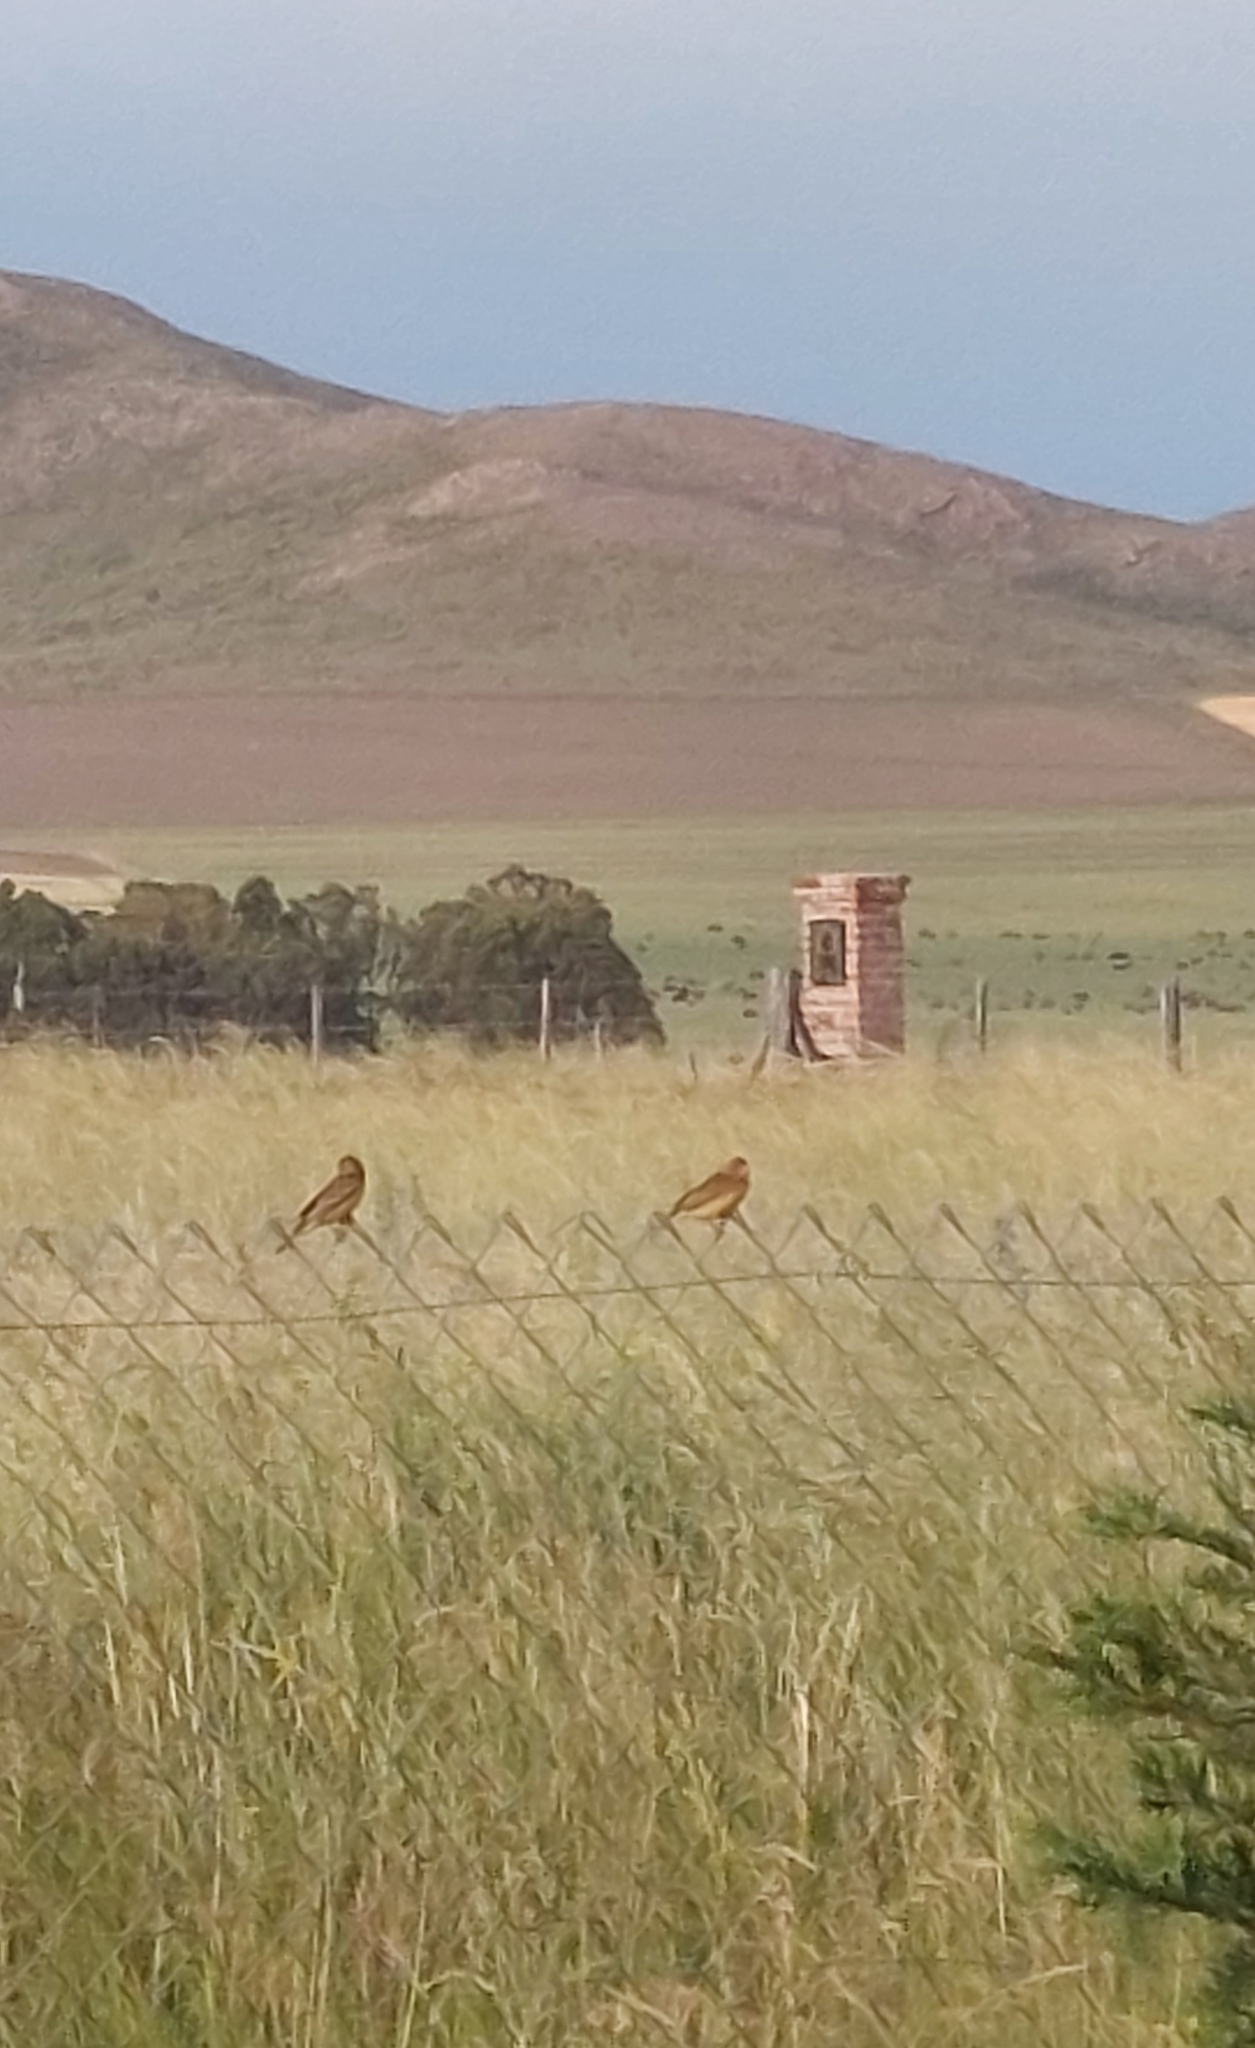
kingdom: Animalia
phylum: Chordata
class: Aves
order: Passeriformes
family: Thraupidae
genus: Sicalis
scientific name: Sicalis luteola
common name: Grassland yellow-finch
